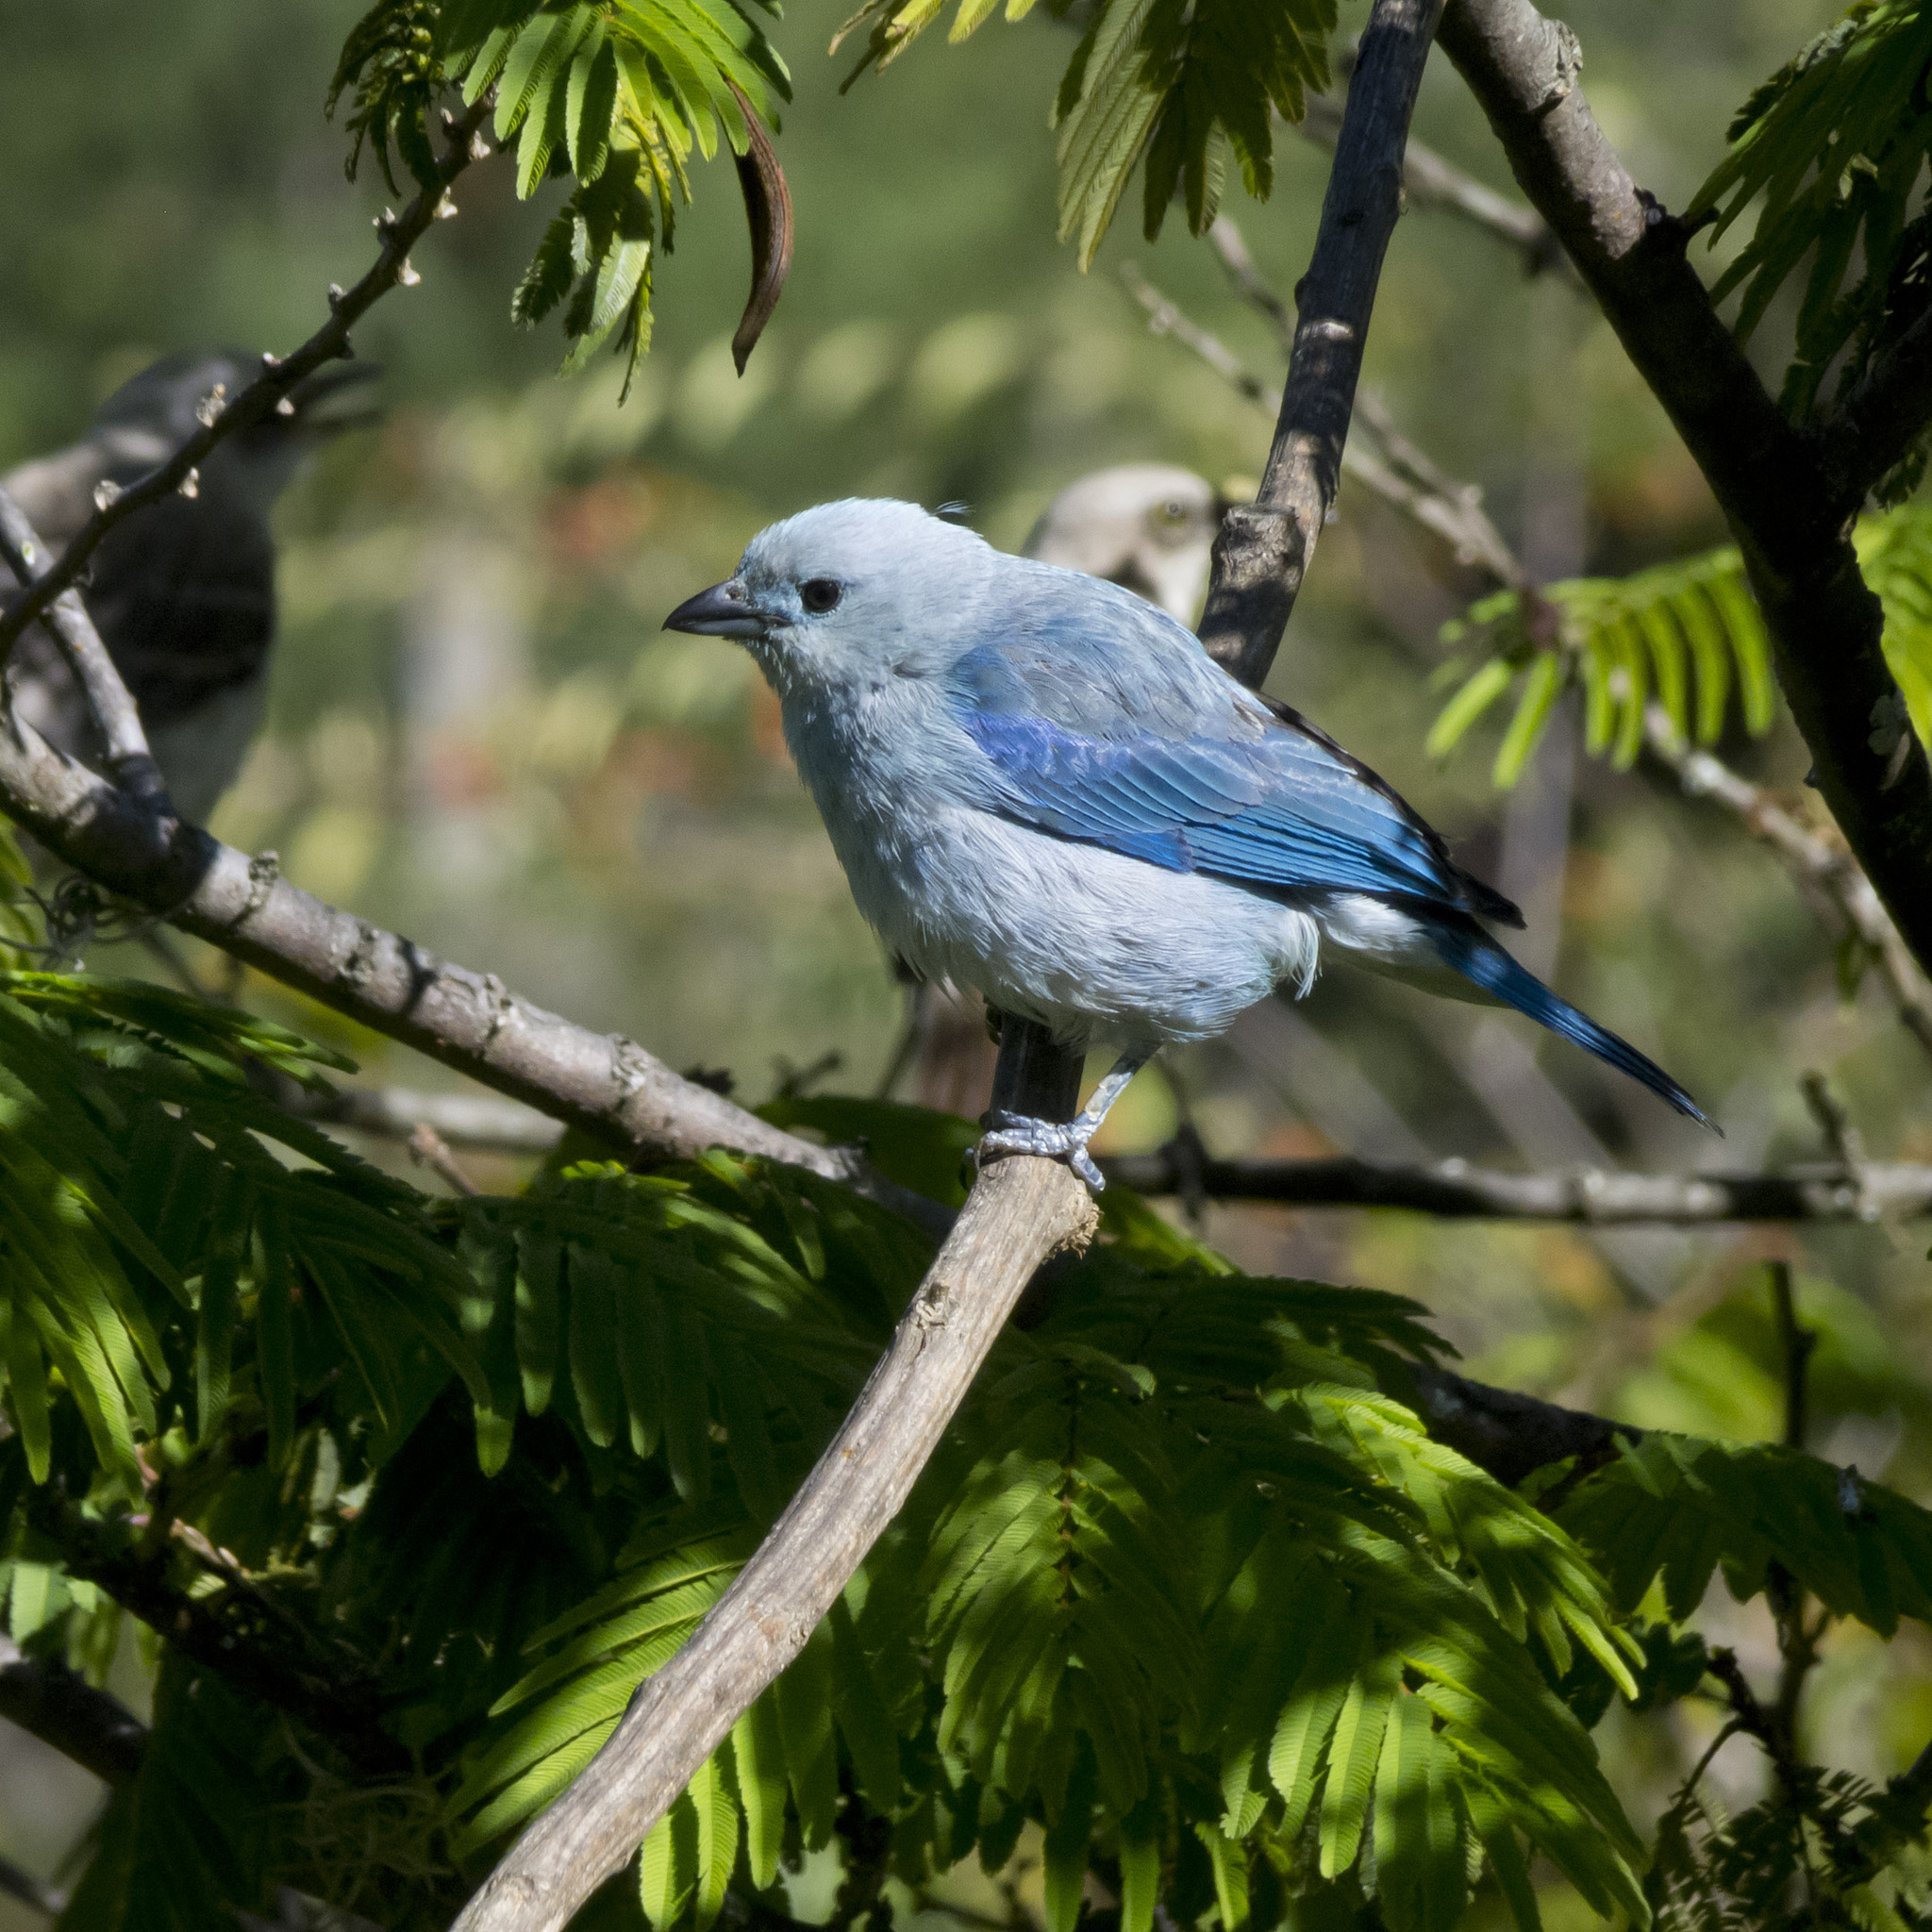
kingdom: Animalia
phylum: Chordata
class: Aves
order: Passeriformes
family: Thraupidae
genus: Thraupis
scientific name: Thraupis episcopus
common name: Blue-grey tanager
